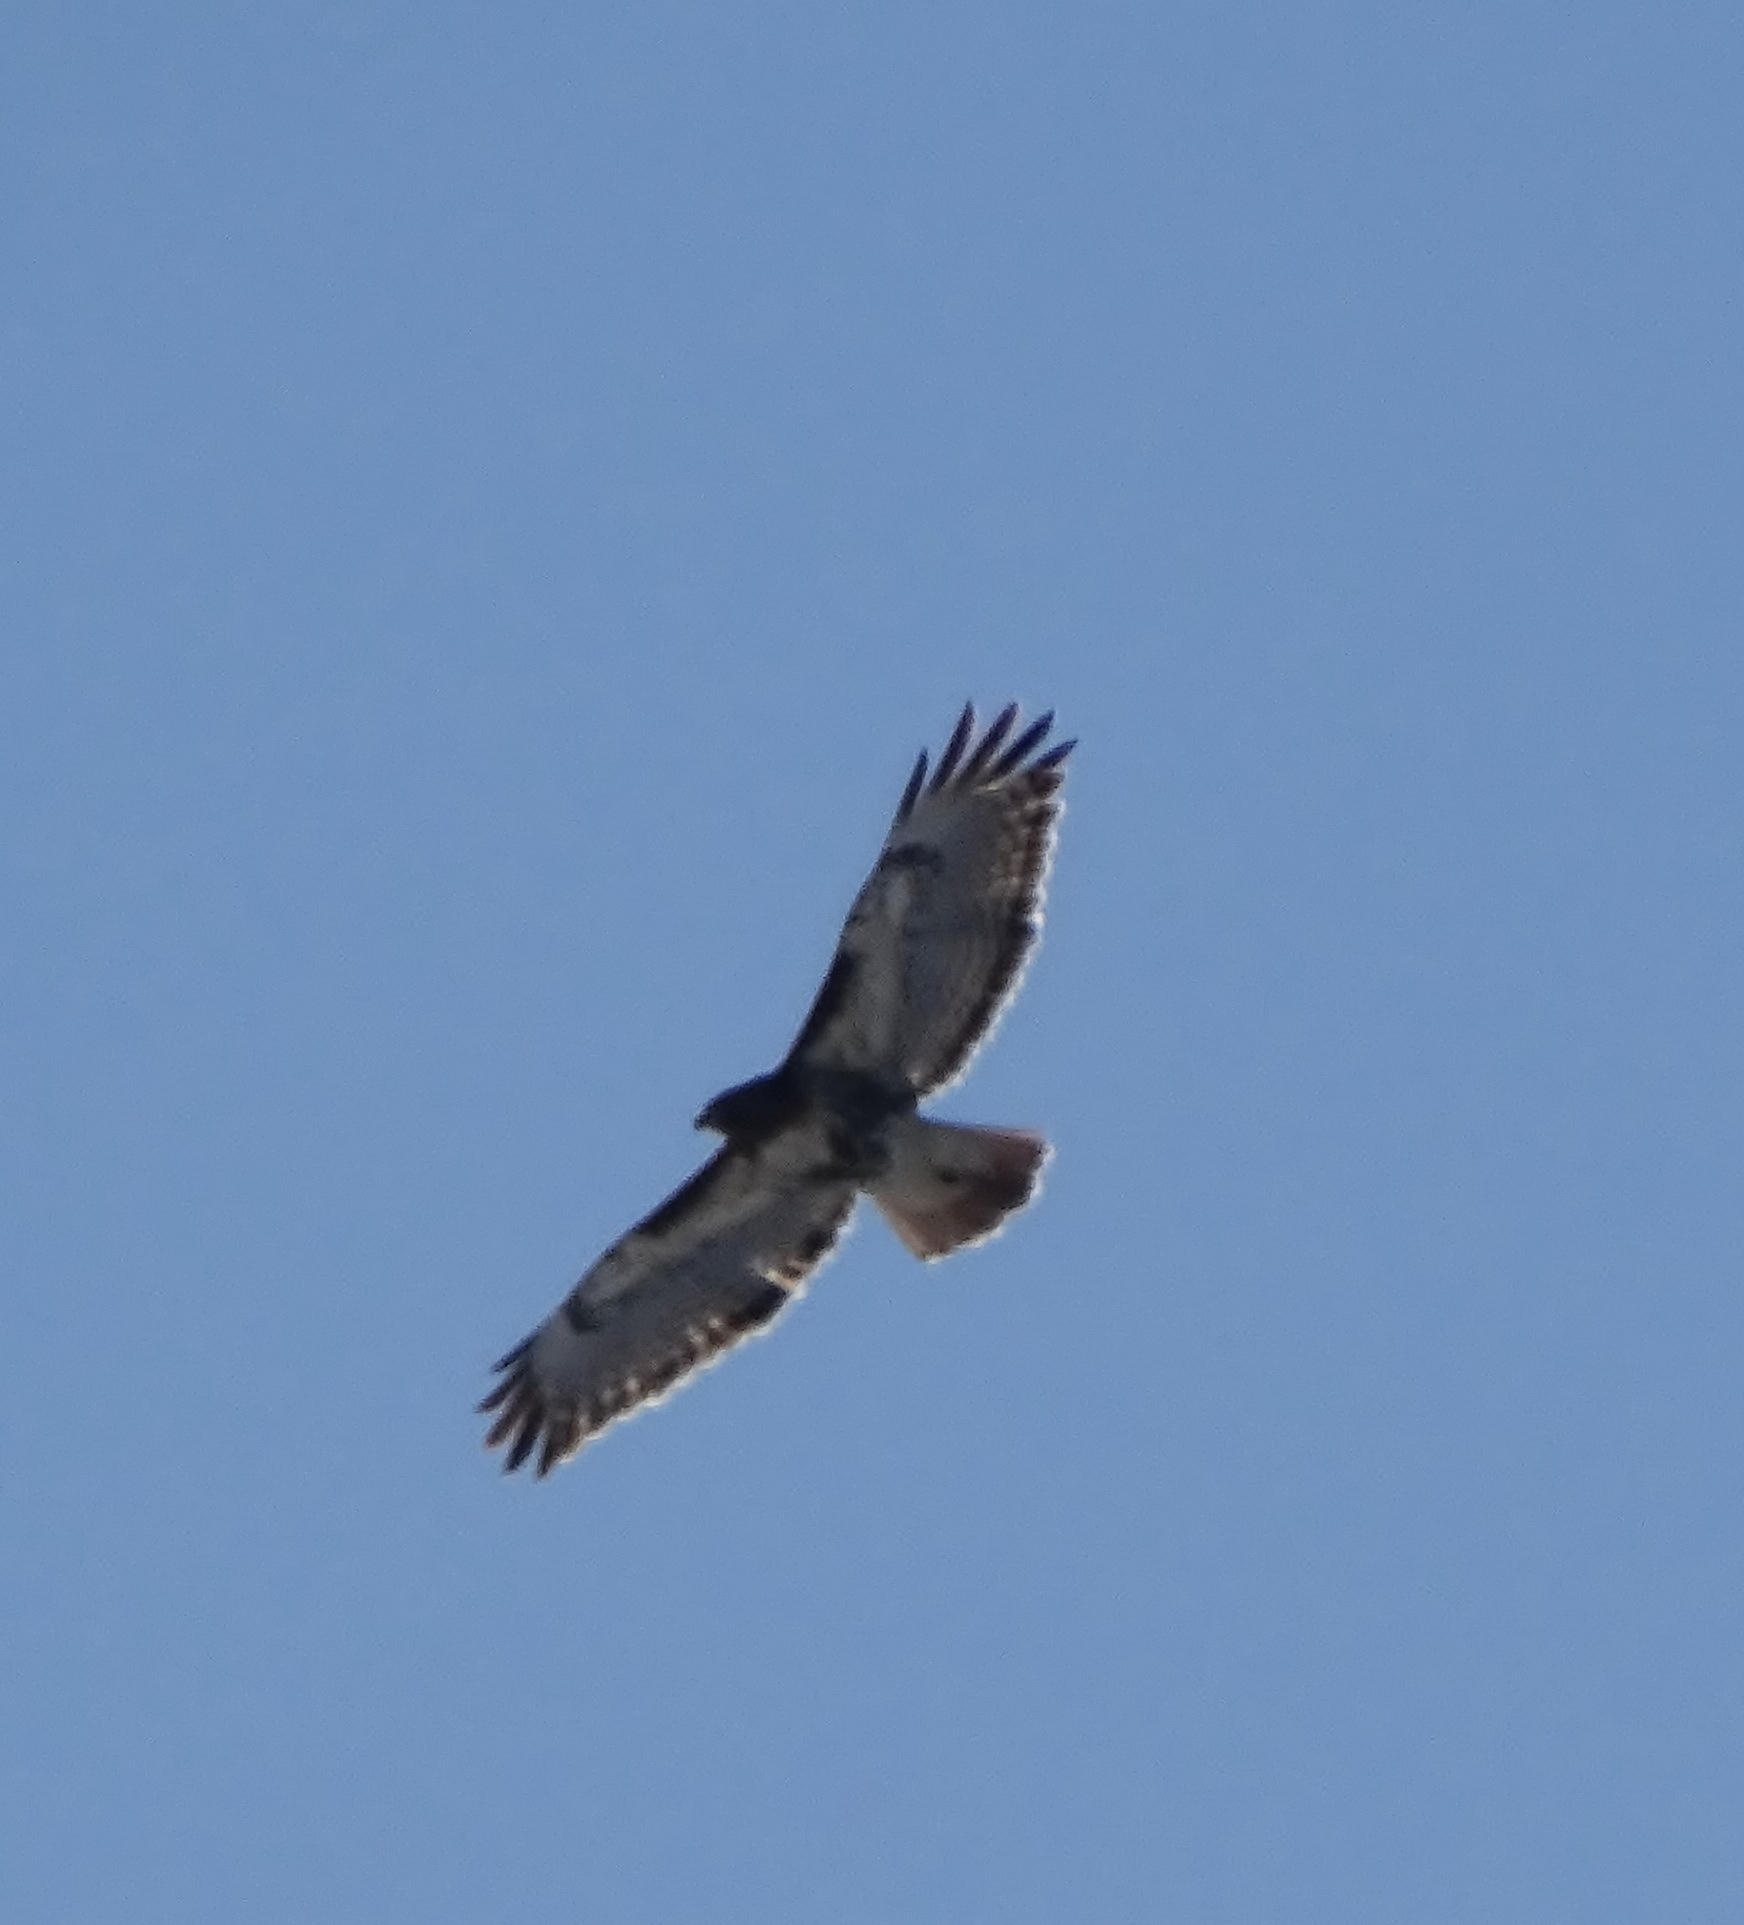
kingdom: Animalia
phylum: Chordata
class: Aves
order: Accipitriformes
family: Accipitridae
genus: Buteo
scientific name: Buteo jamaicensis
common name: Red-tailed hawk
